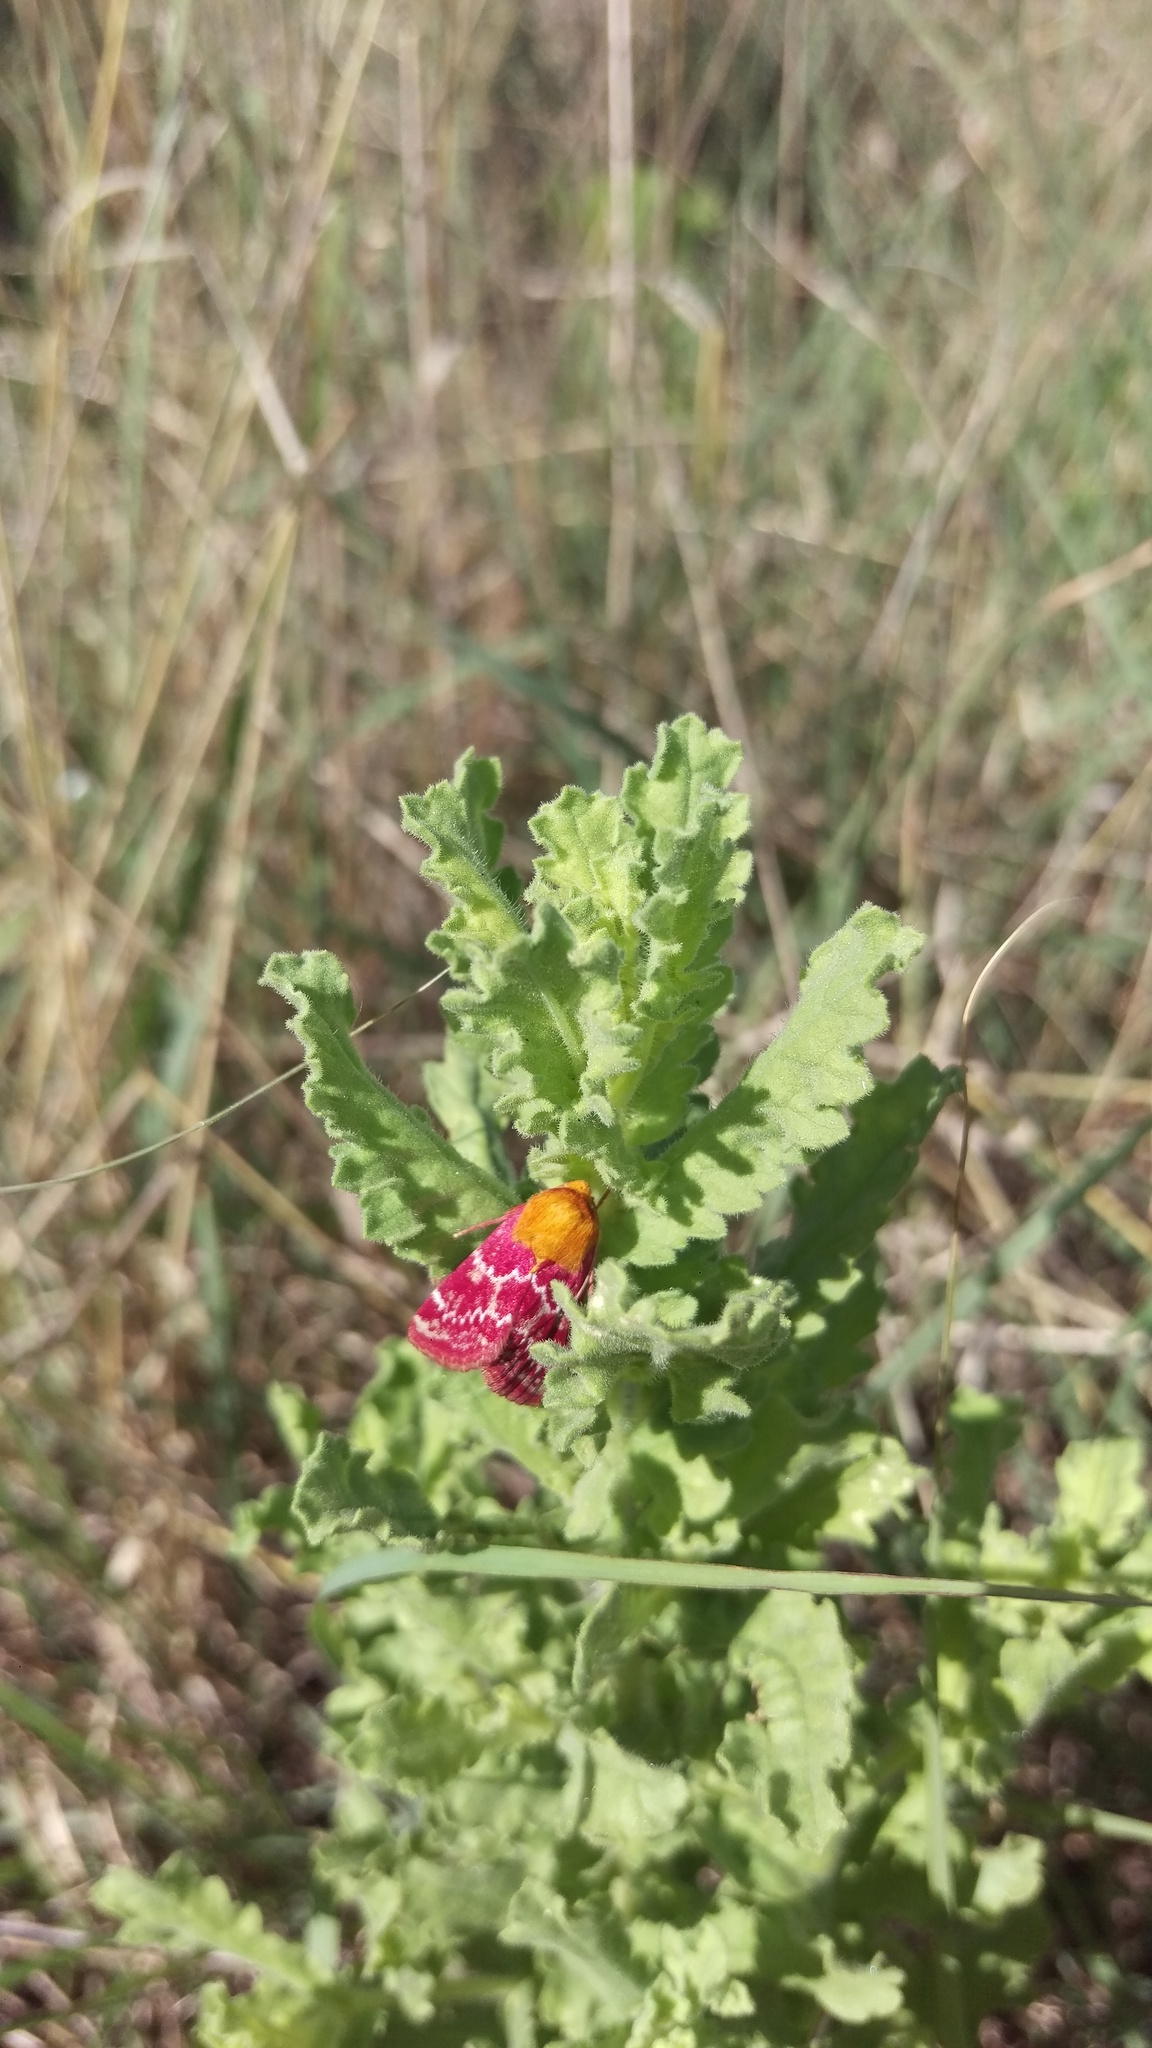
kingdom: Animalia
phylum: Arthropoda
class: Insecta
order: Lepidoptera
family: Noctuidae
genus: Schinia
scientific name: Schinia volupia
